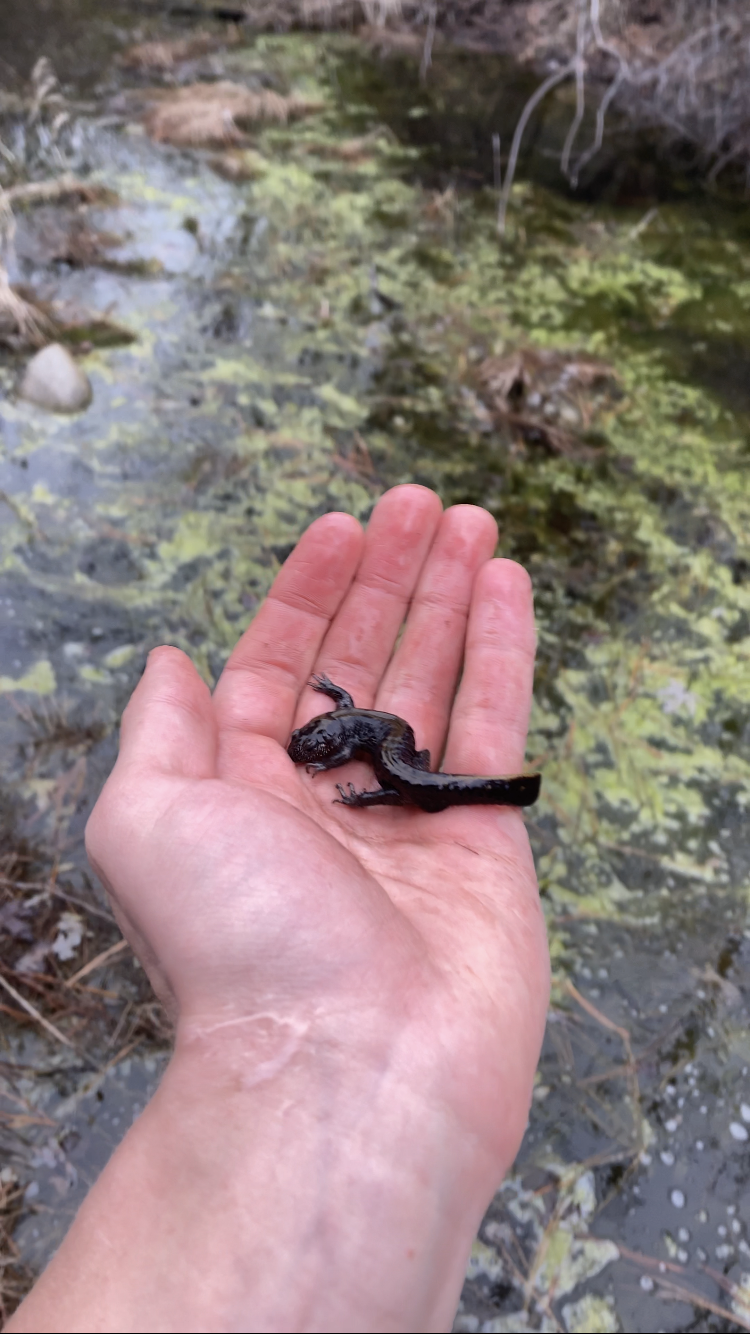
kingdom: Animalia
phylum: Chordata
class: Amphibia
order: Caudata
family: Ambystomatidae
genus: Ambystoma
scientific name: Ambystoma macrodactylum
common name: Long-toed salamander
